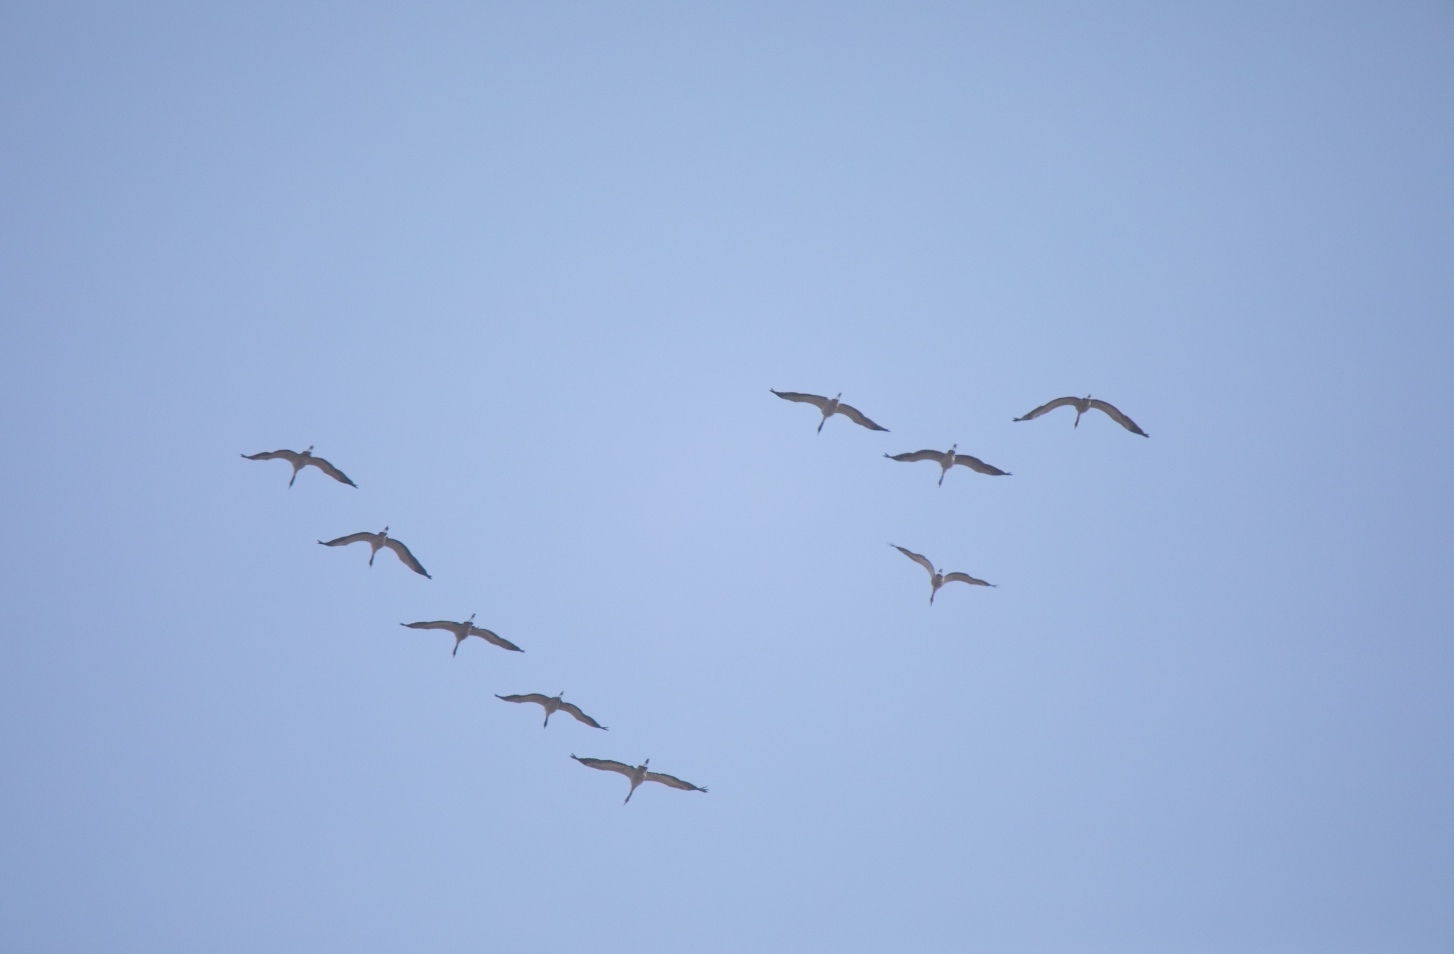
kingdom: Animalia
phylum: Chordata
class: Aves
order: Gruiformes
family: Gruidae
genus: Grus
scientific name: Grus grus
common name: Common crane
